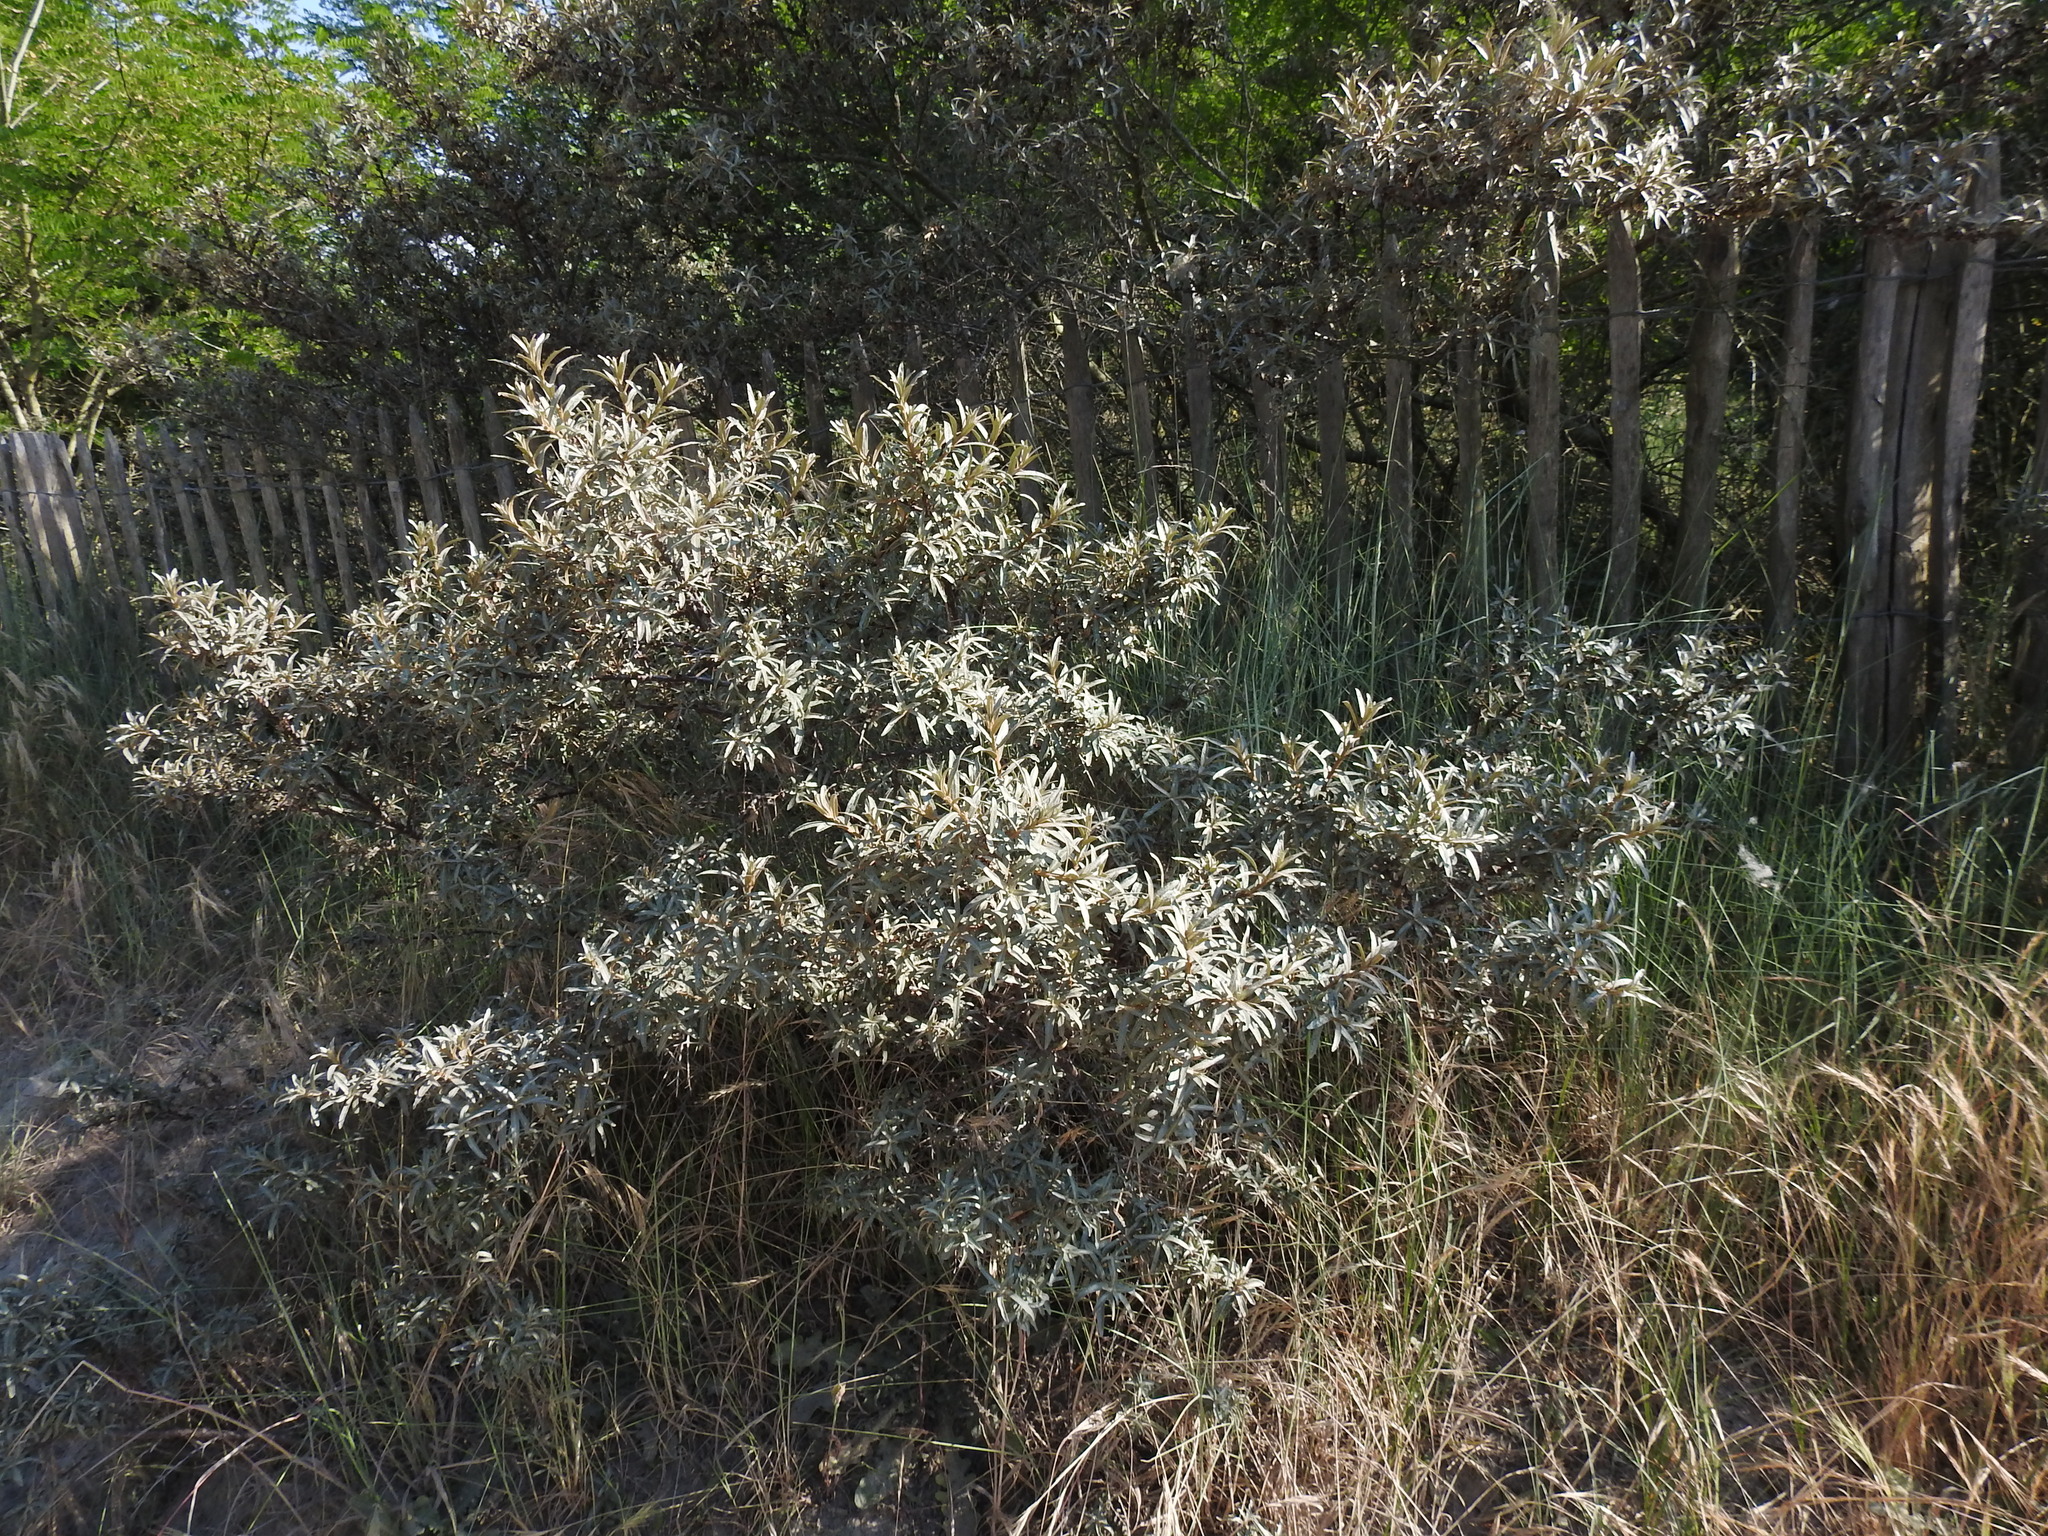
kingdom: Plantae
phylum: Tracheophyta
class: Magnoliopsida
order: Rosales
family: Elaeagnaceae
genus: Hippophae
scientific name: Hippophae rhamnoides
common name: Sea-buckthorn
